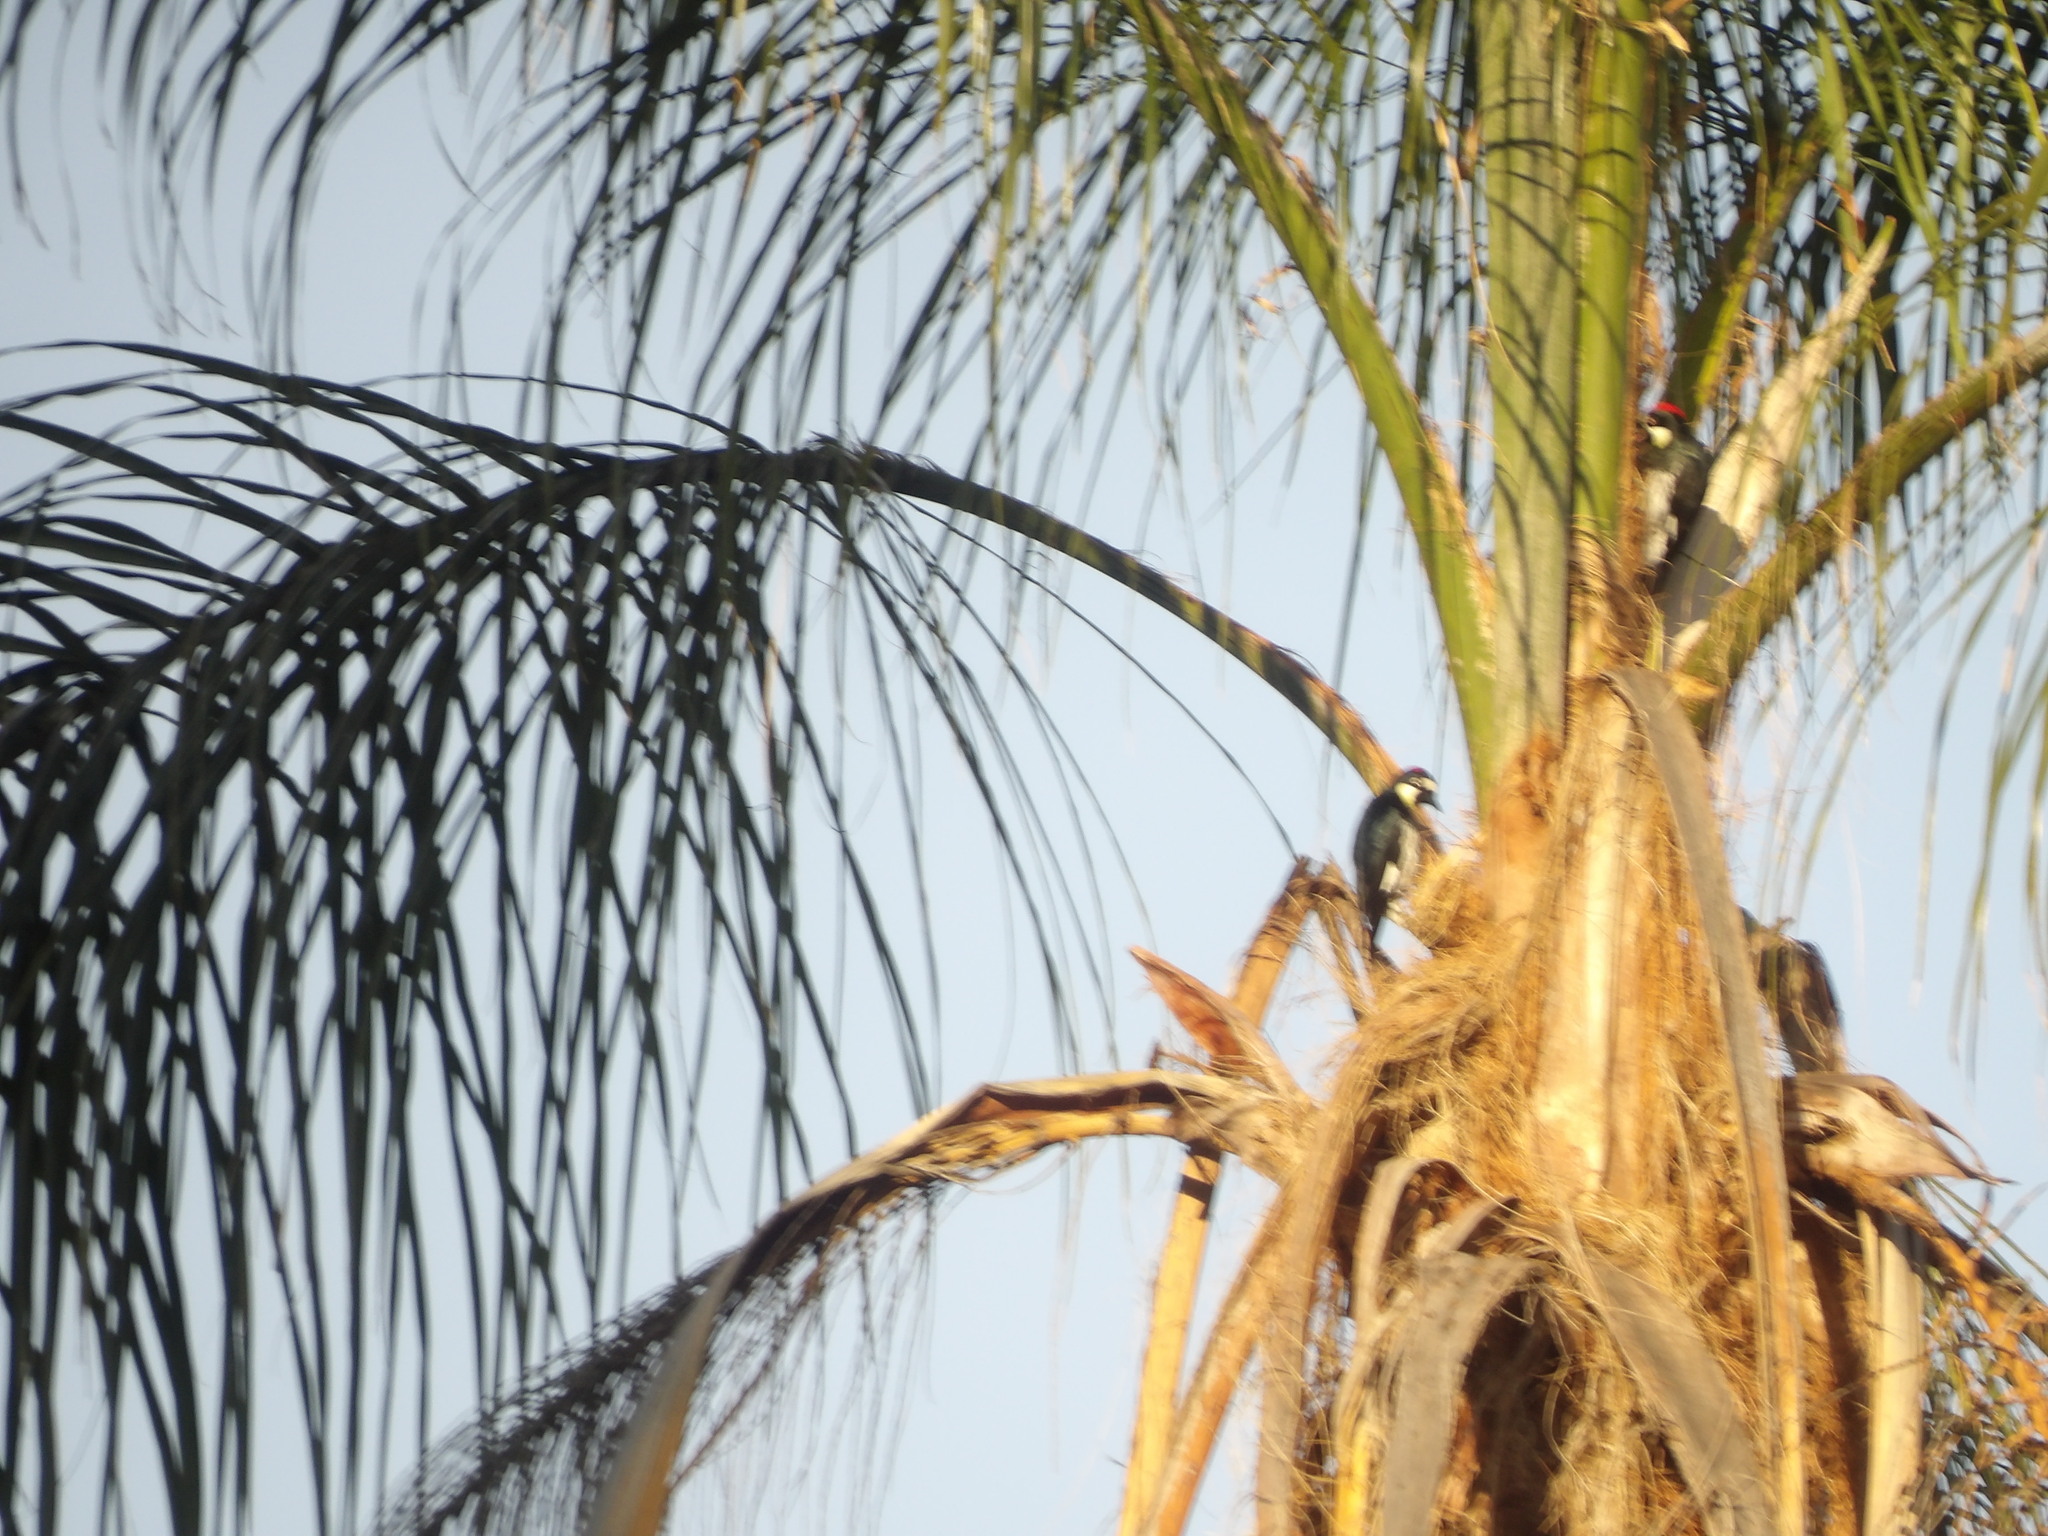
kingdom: Animalia
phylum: Chordata
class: Aves
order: Piciformes
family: Picidae
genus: Melanerpes
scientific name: Melanerpes formicivorus
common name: Acorn woodpecker
